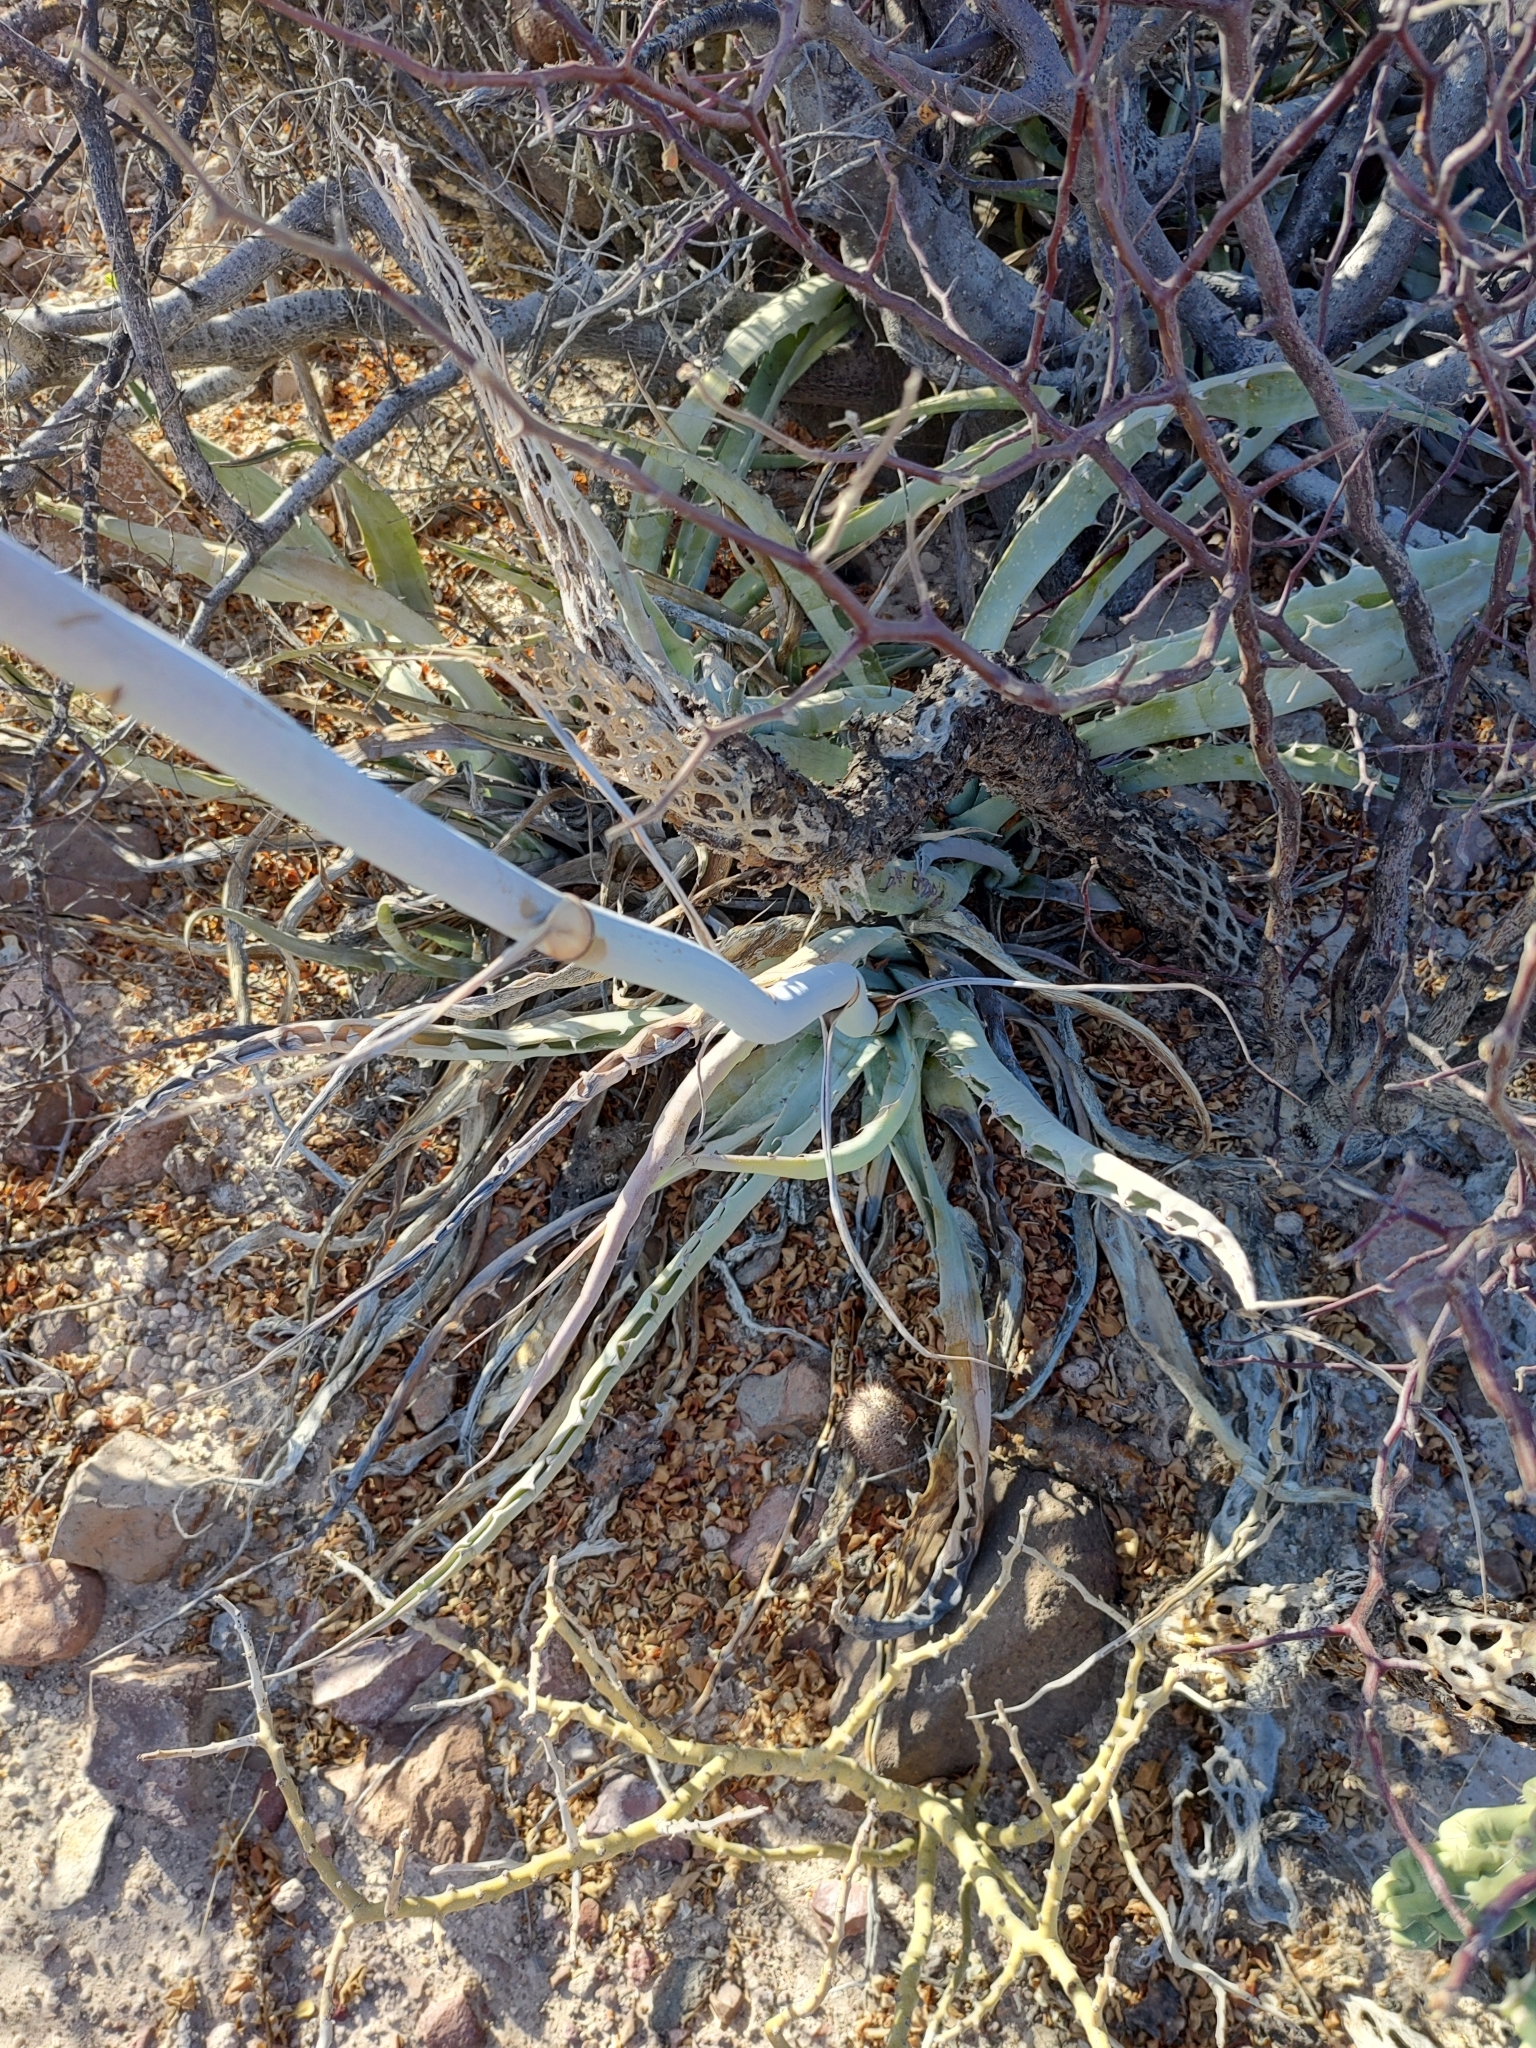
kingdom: Plantae
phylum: Tracheophyta
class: Liliopsida
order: Asparagales
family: Asparagaceae
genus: Agave
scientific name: Agave sobria
